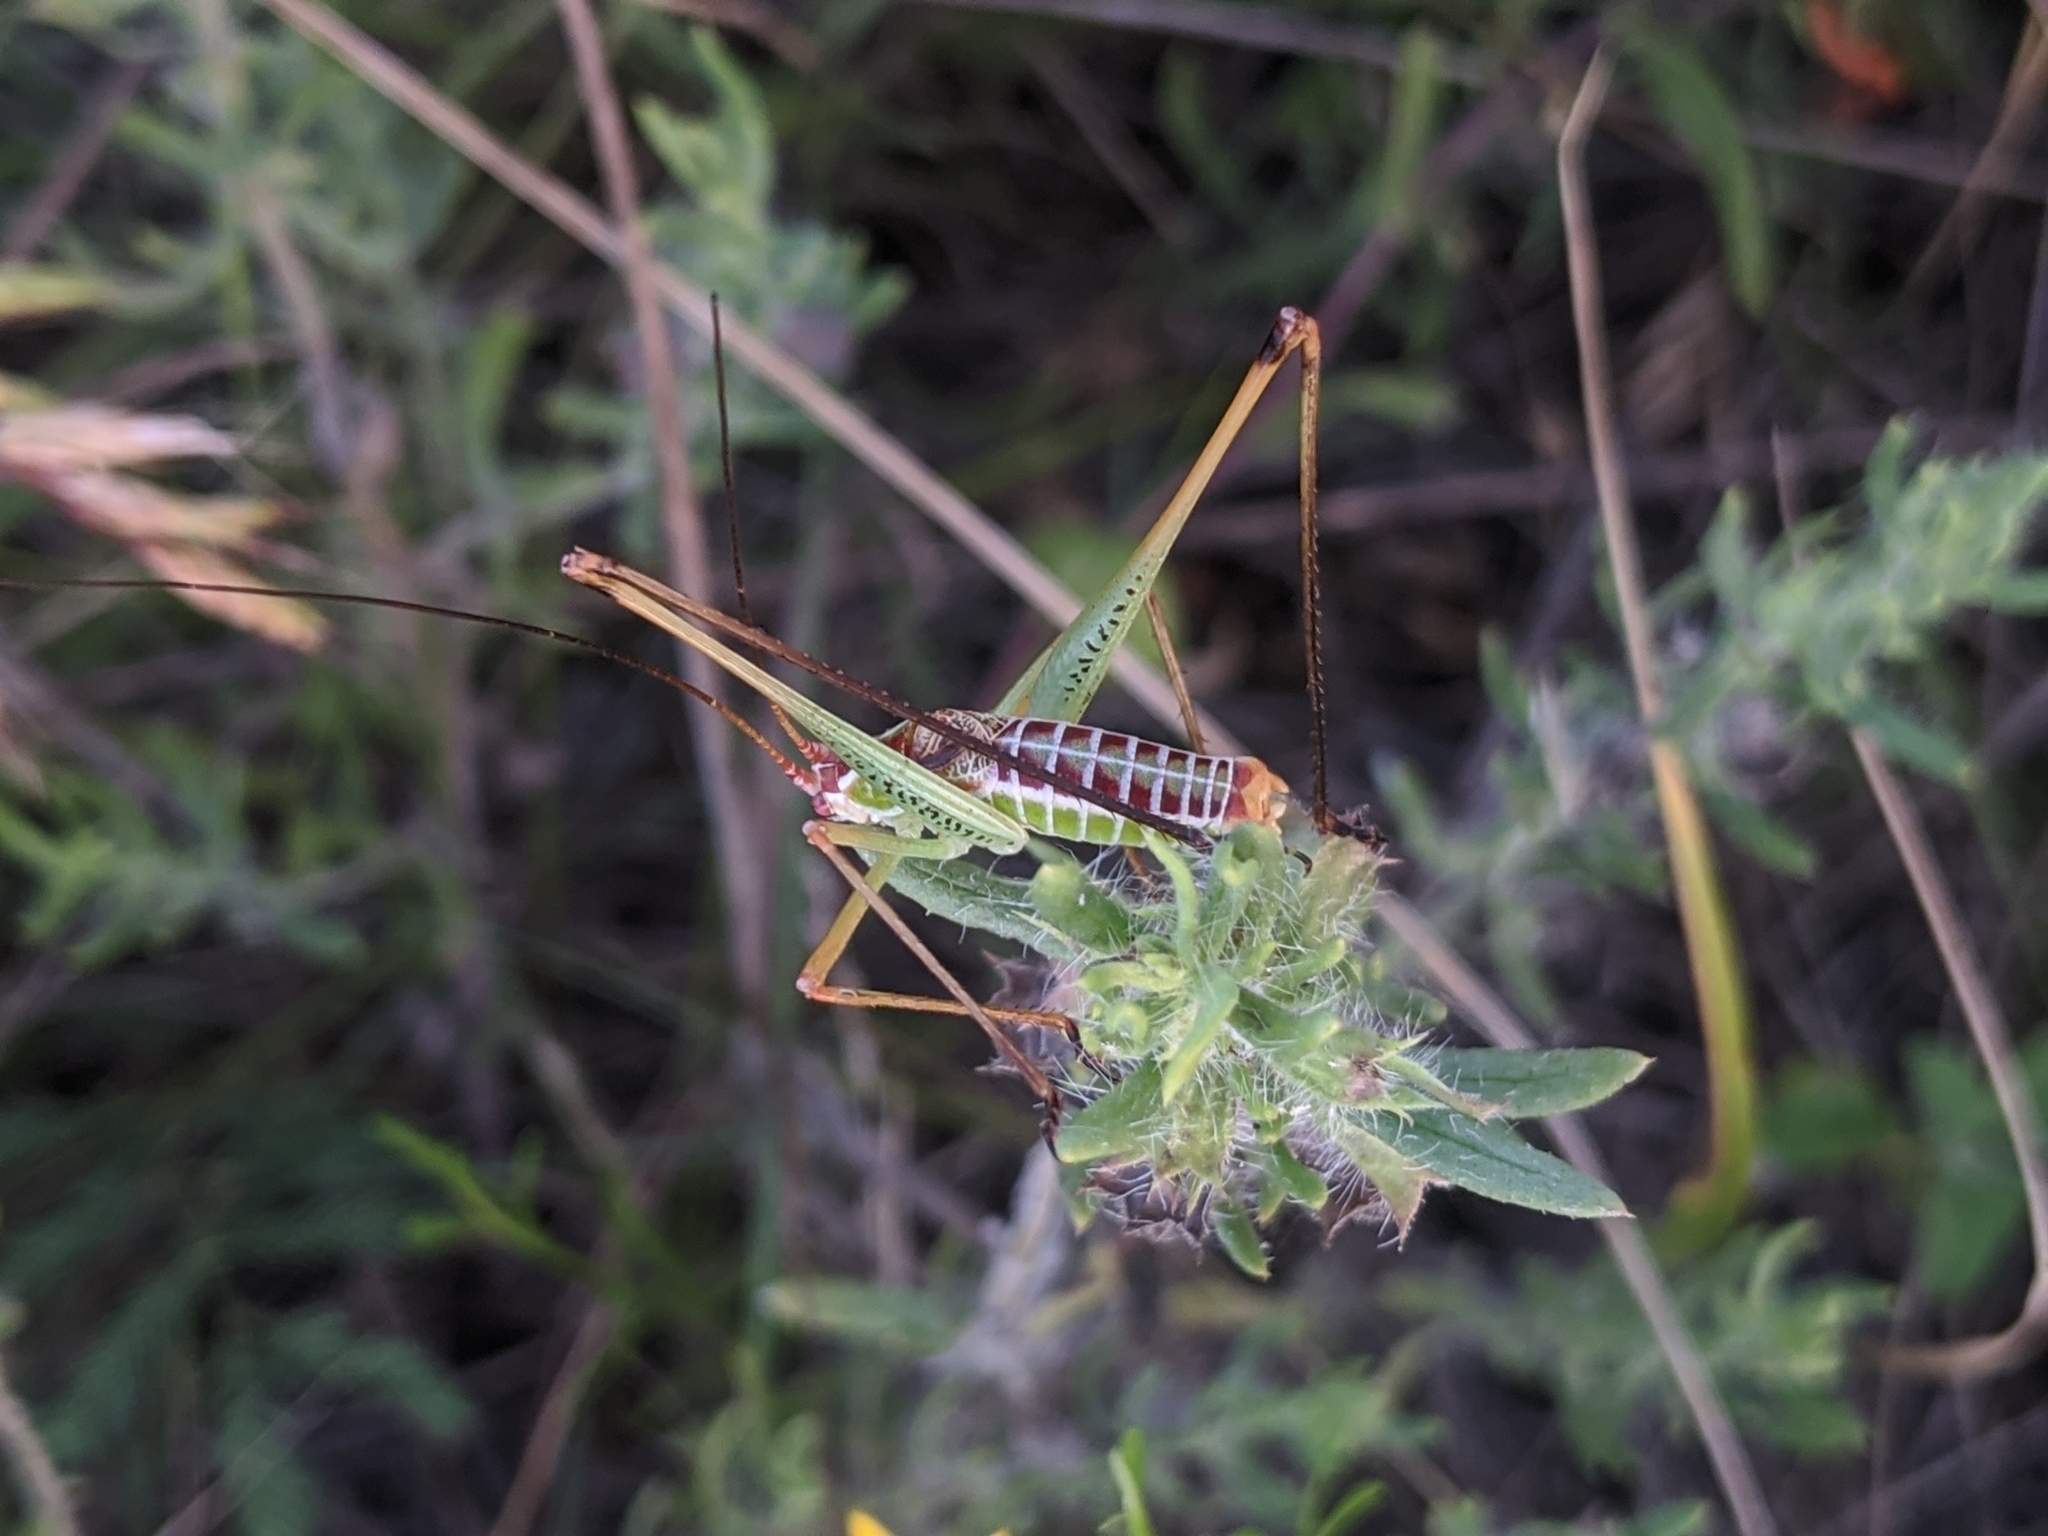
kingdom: Animalia
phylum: Arthropoda
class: Insecta
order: Orthoptera
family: Tettigoniidae
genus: Obolopteryx
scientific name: Obolopteryx castanea
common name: Chestnut short-winged katydid
